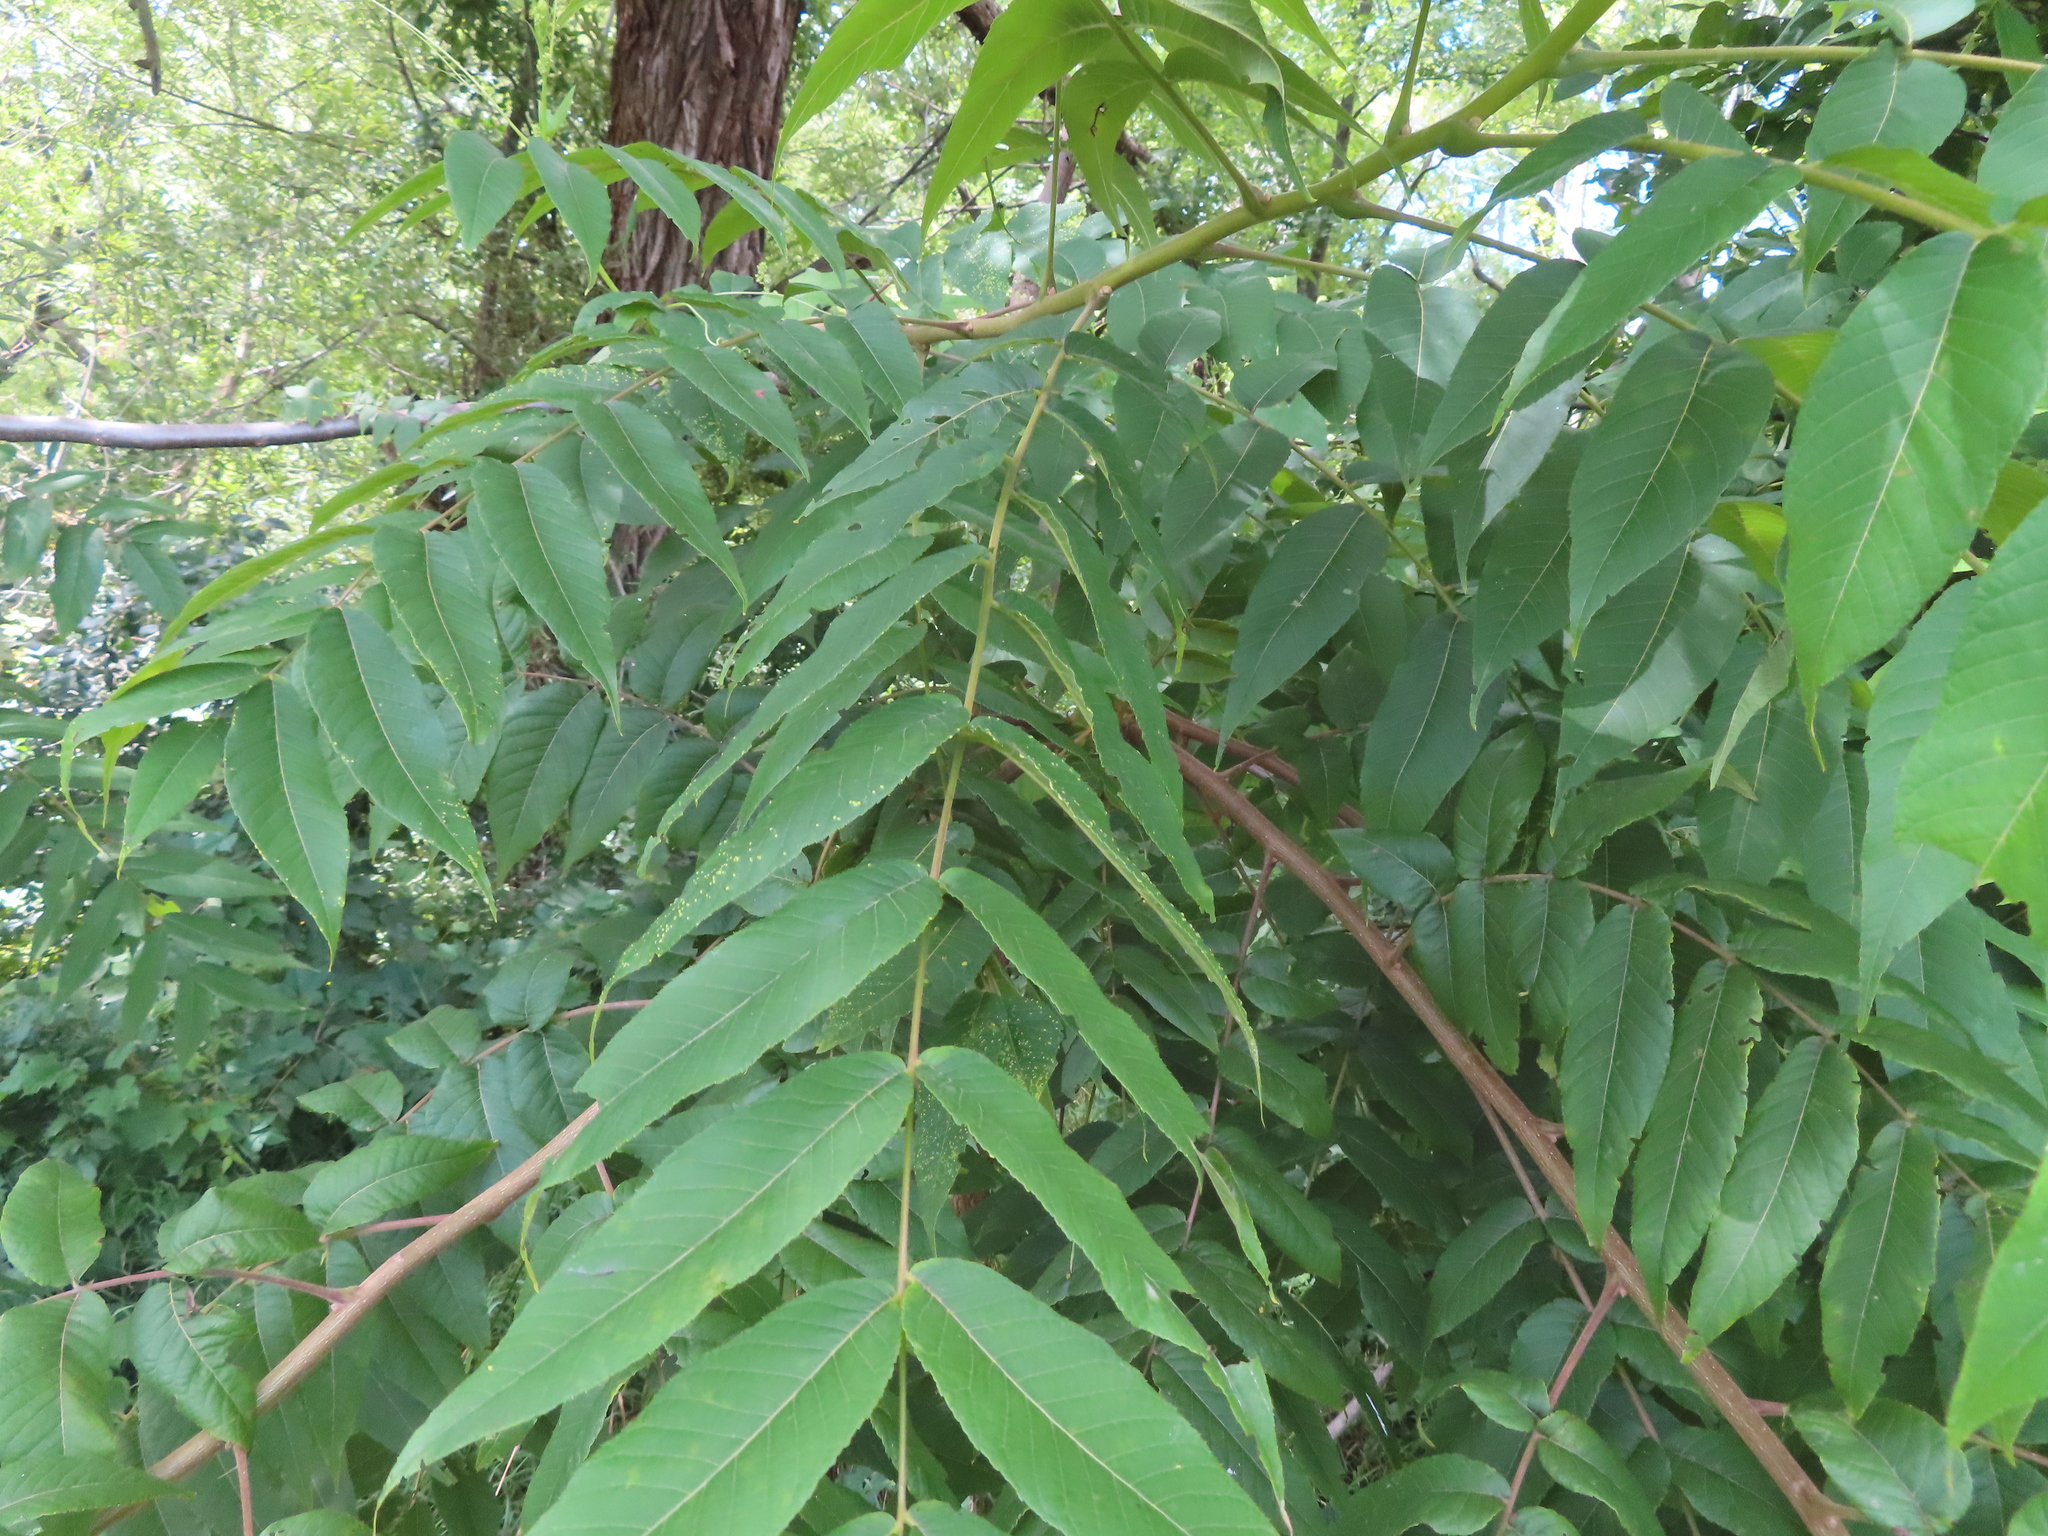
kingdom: Plantae
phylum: Tracheophyta
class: Magnoliopsida
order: Fagales
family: Juglandaceae
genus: Juglans
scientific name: Juglans nigra
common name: Black walnut
